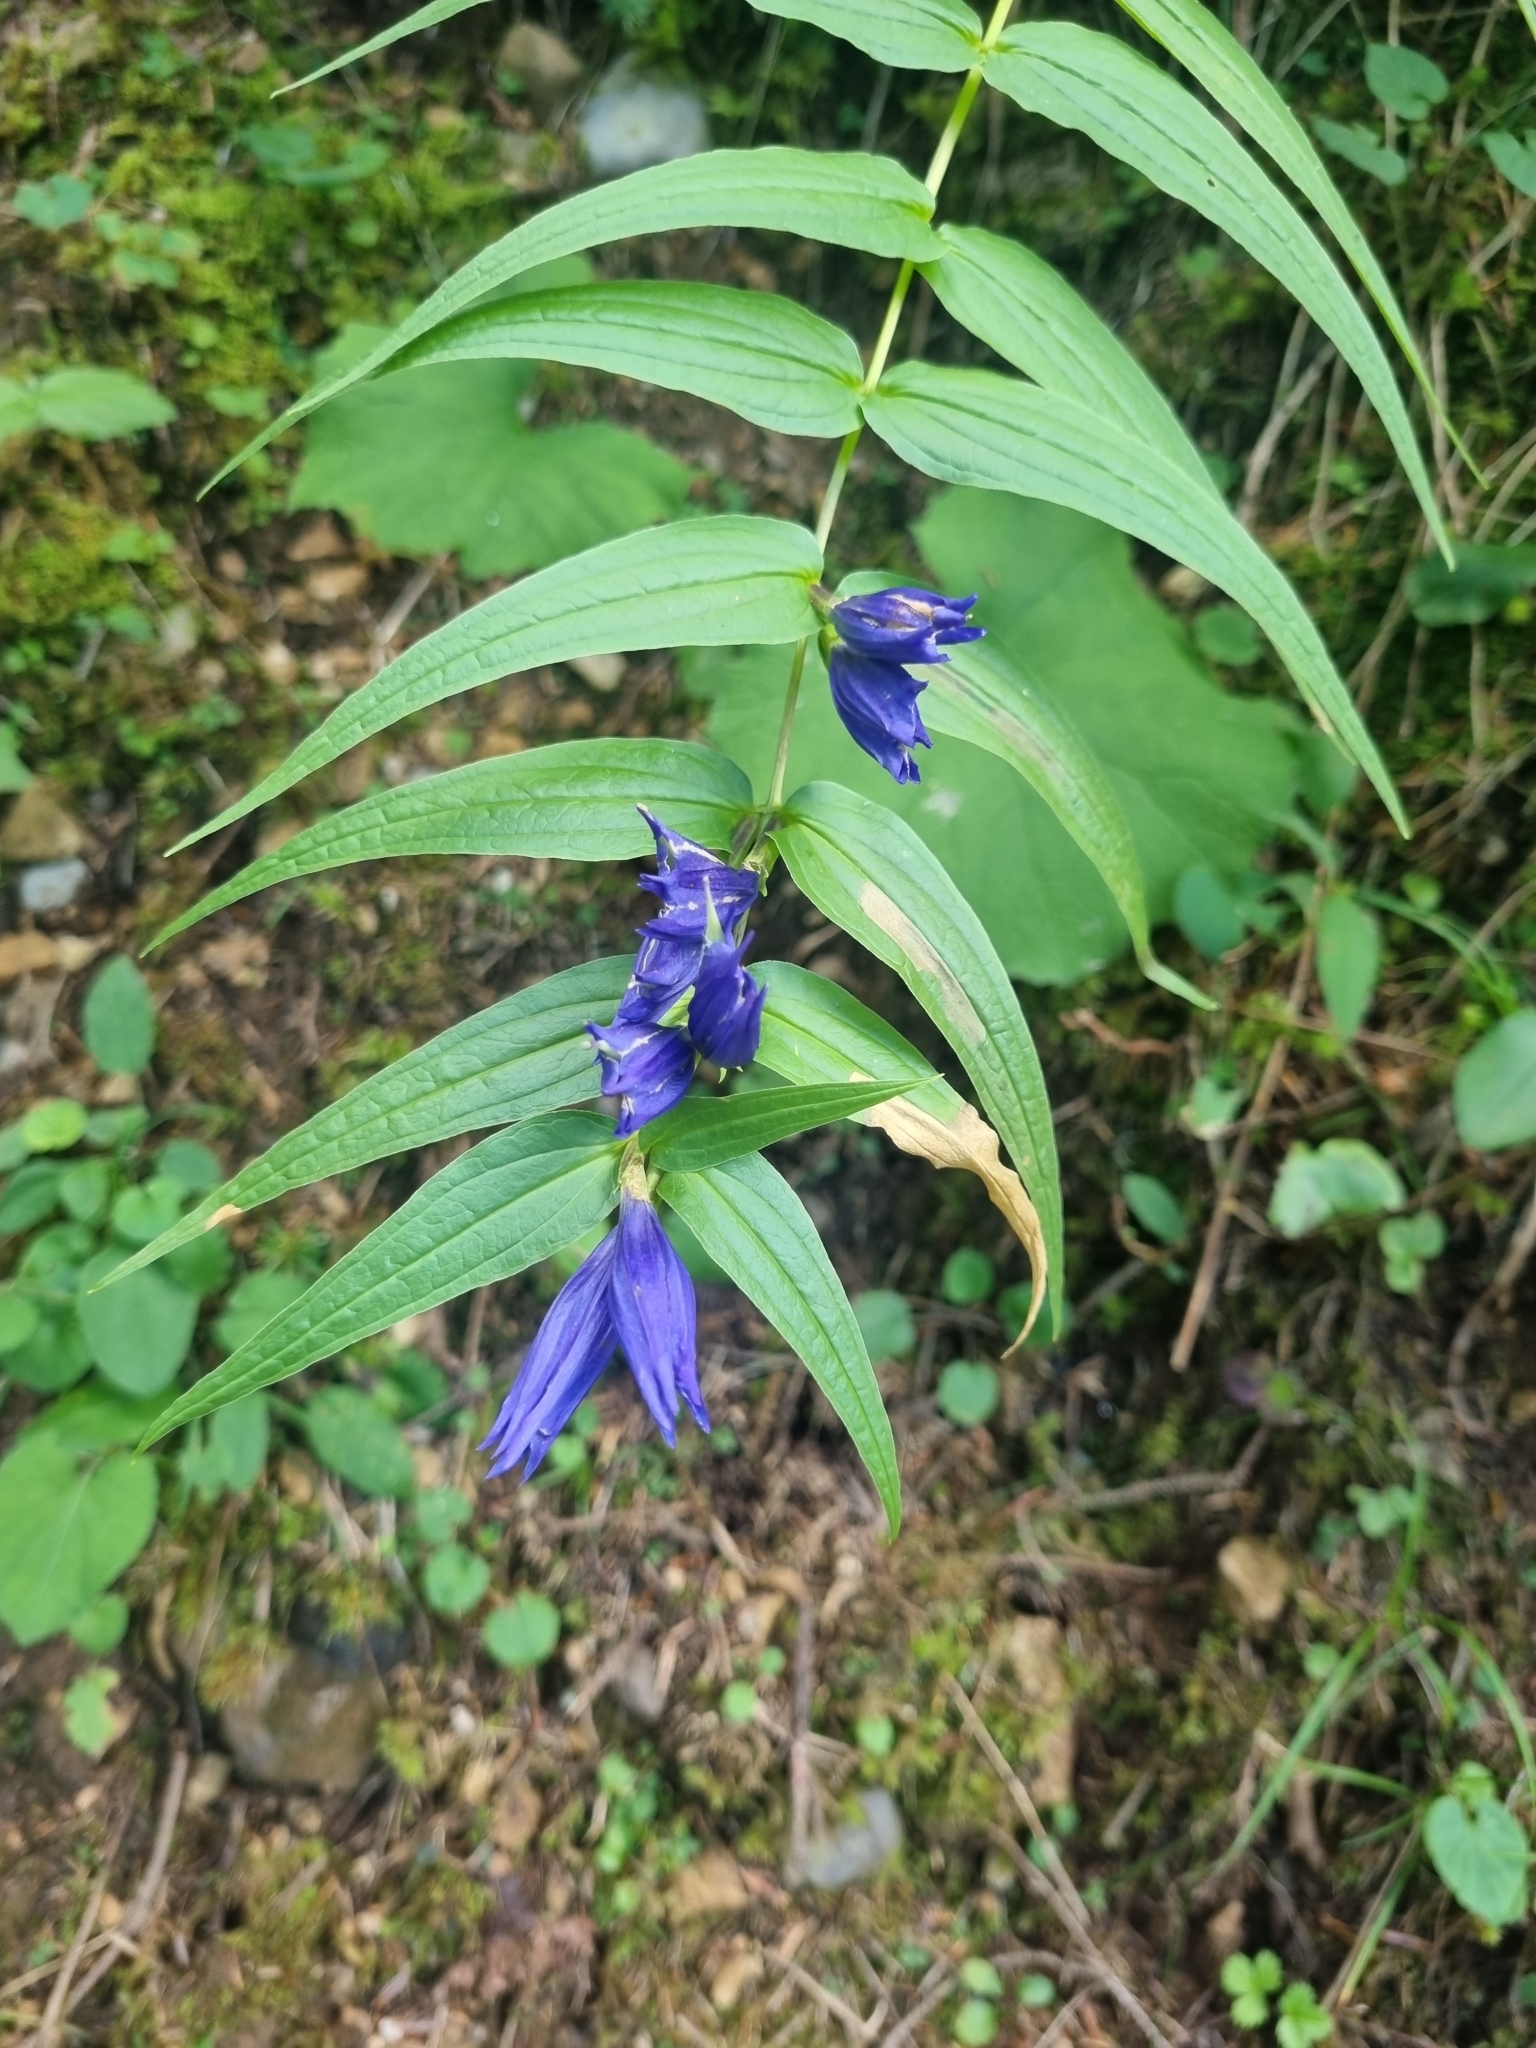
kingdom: Plantae
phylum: Tracheophyta
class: Magnoliopsida
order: Gentianales
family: Gentianaceae
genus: Gentiana
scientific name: Gentiana asclepiadea
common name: Willow gentian
